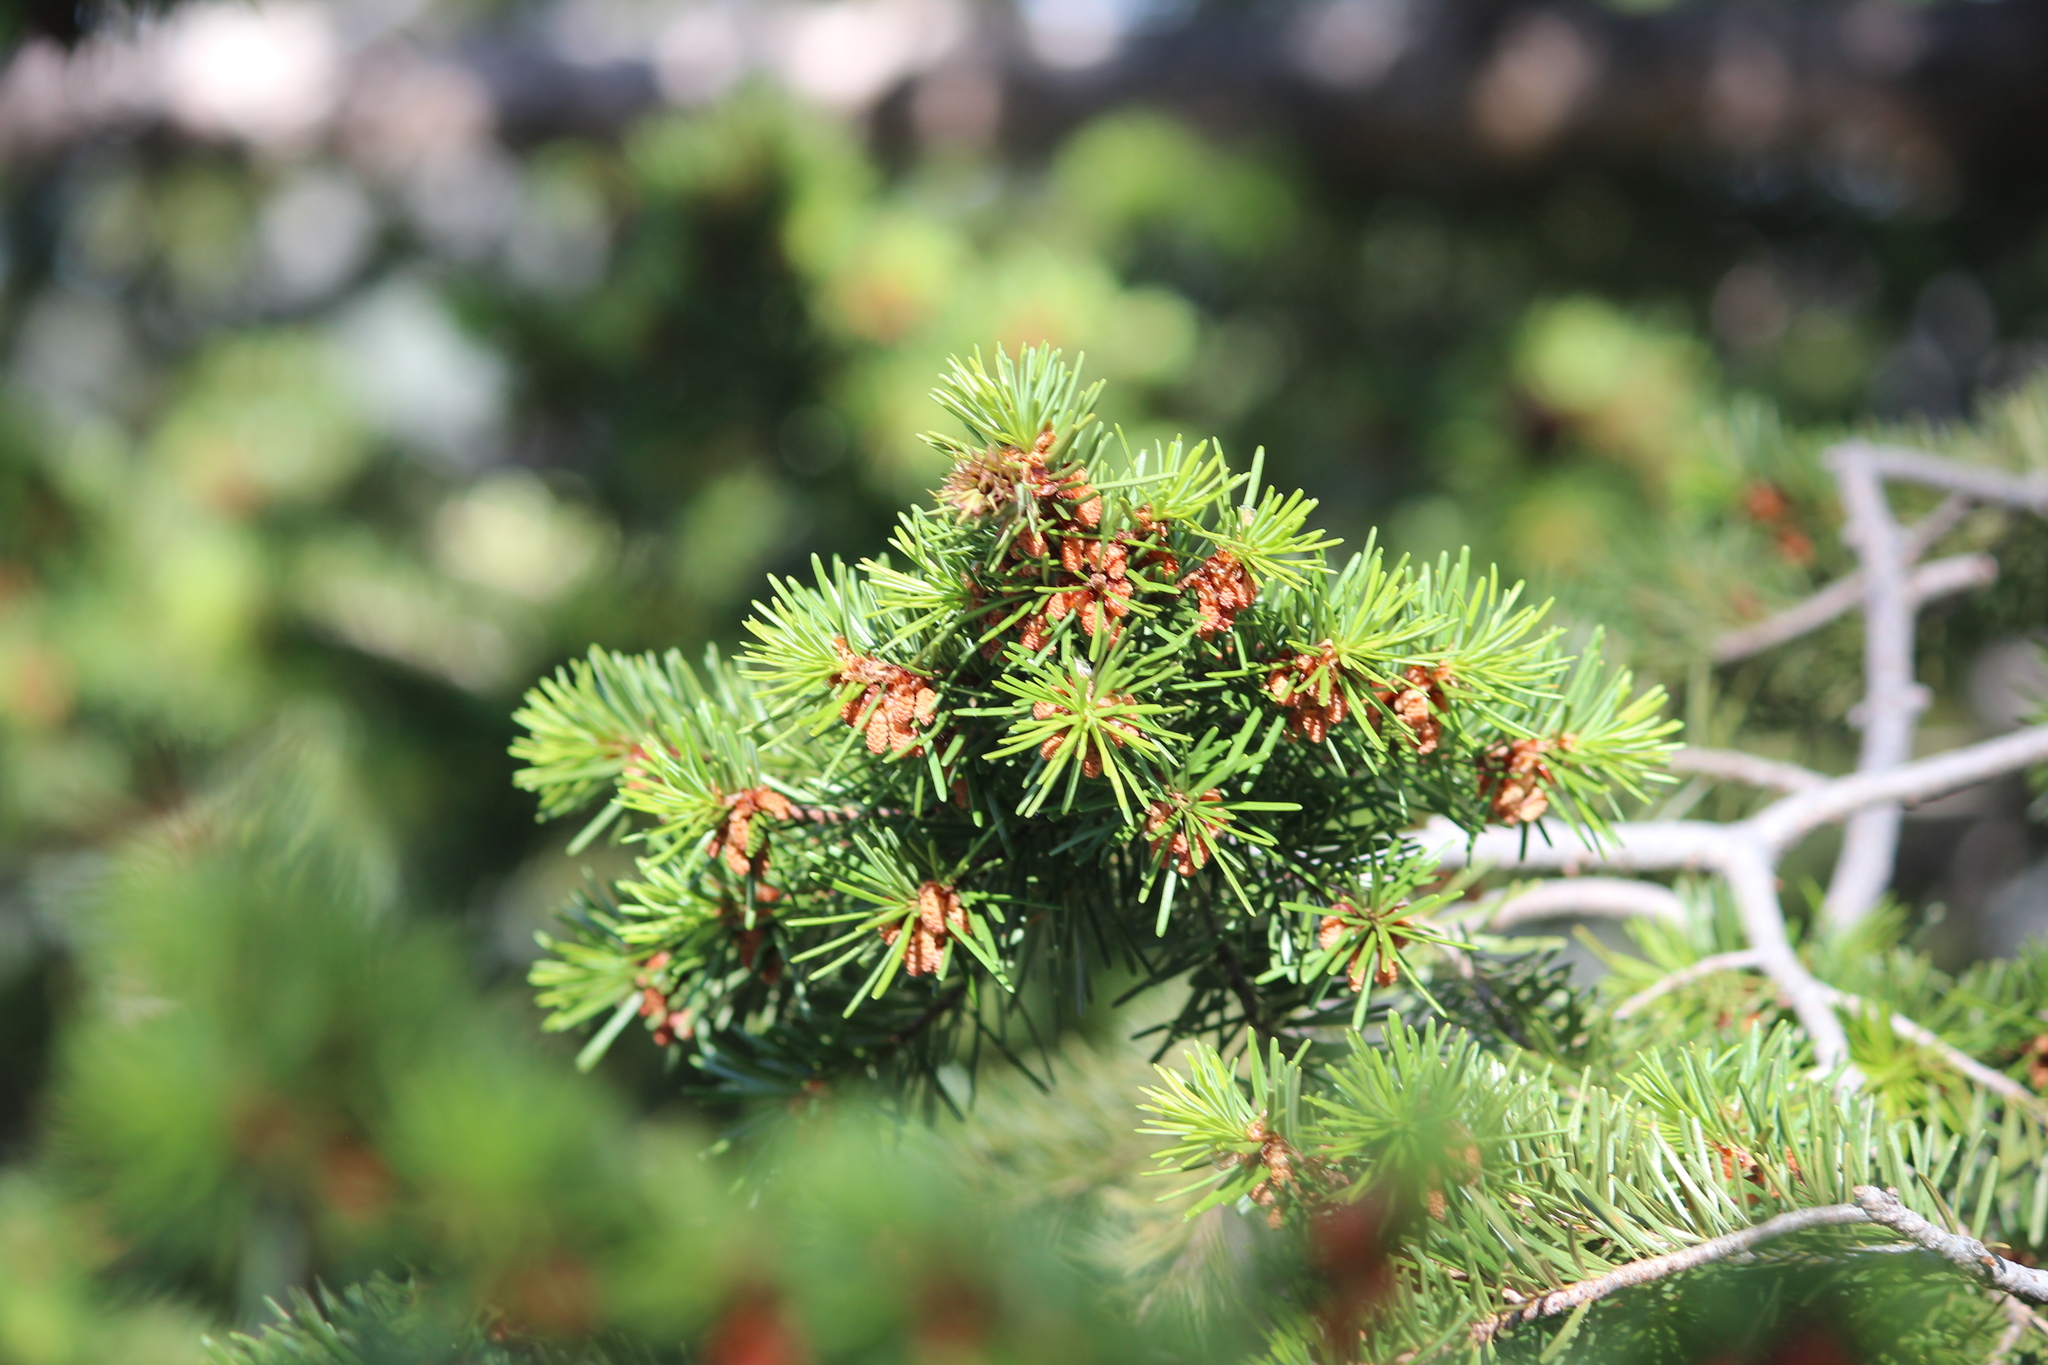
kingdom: Plantae
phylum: Tracheophyta
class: Pinopsida
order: Pinales
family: Pinaceae
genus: Pseudotsuga
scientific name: Pseudotsuga menziesii
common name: Douglas fir
